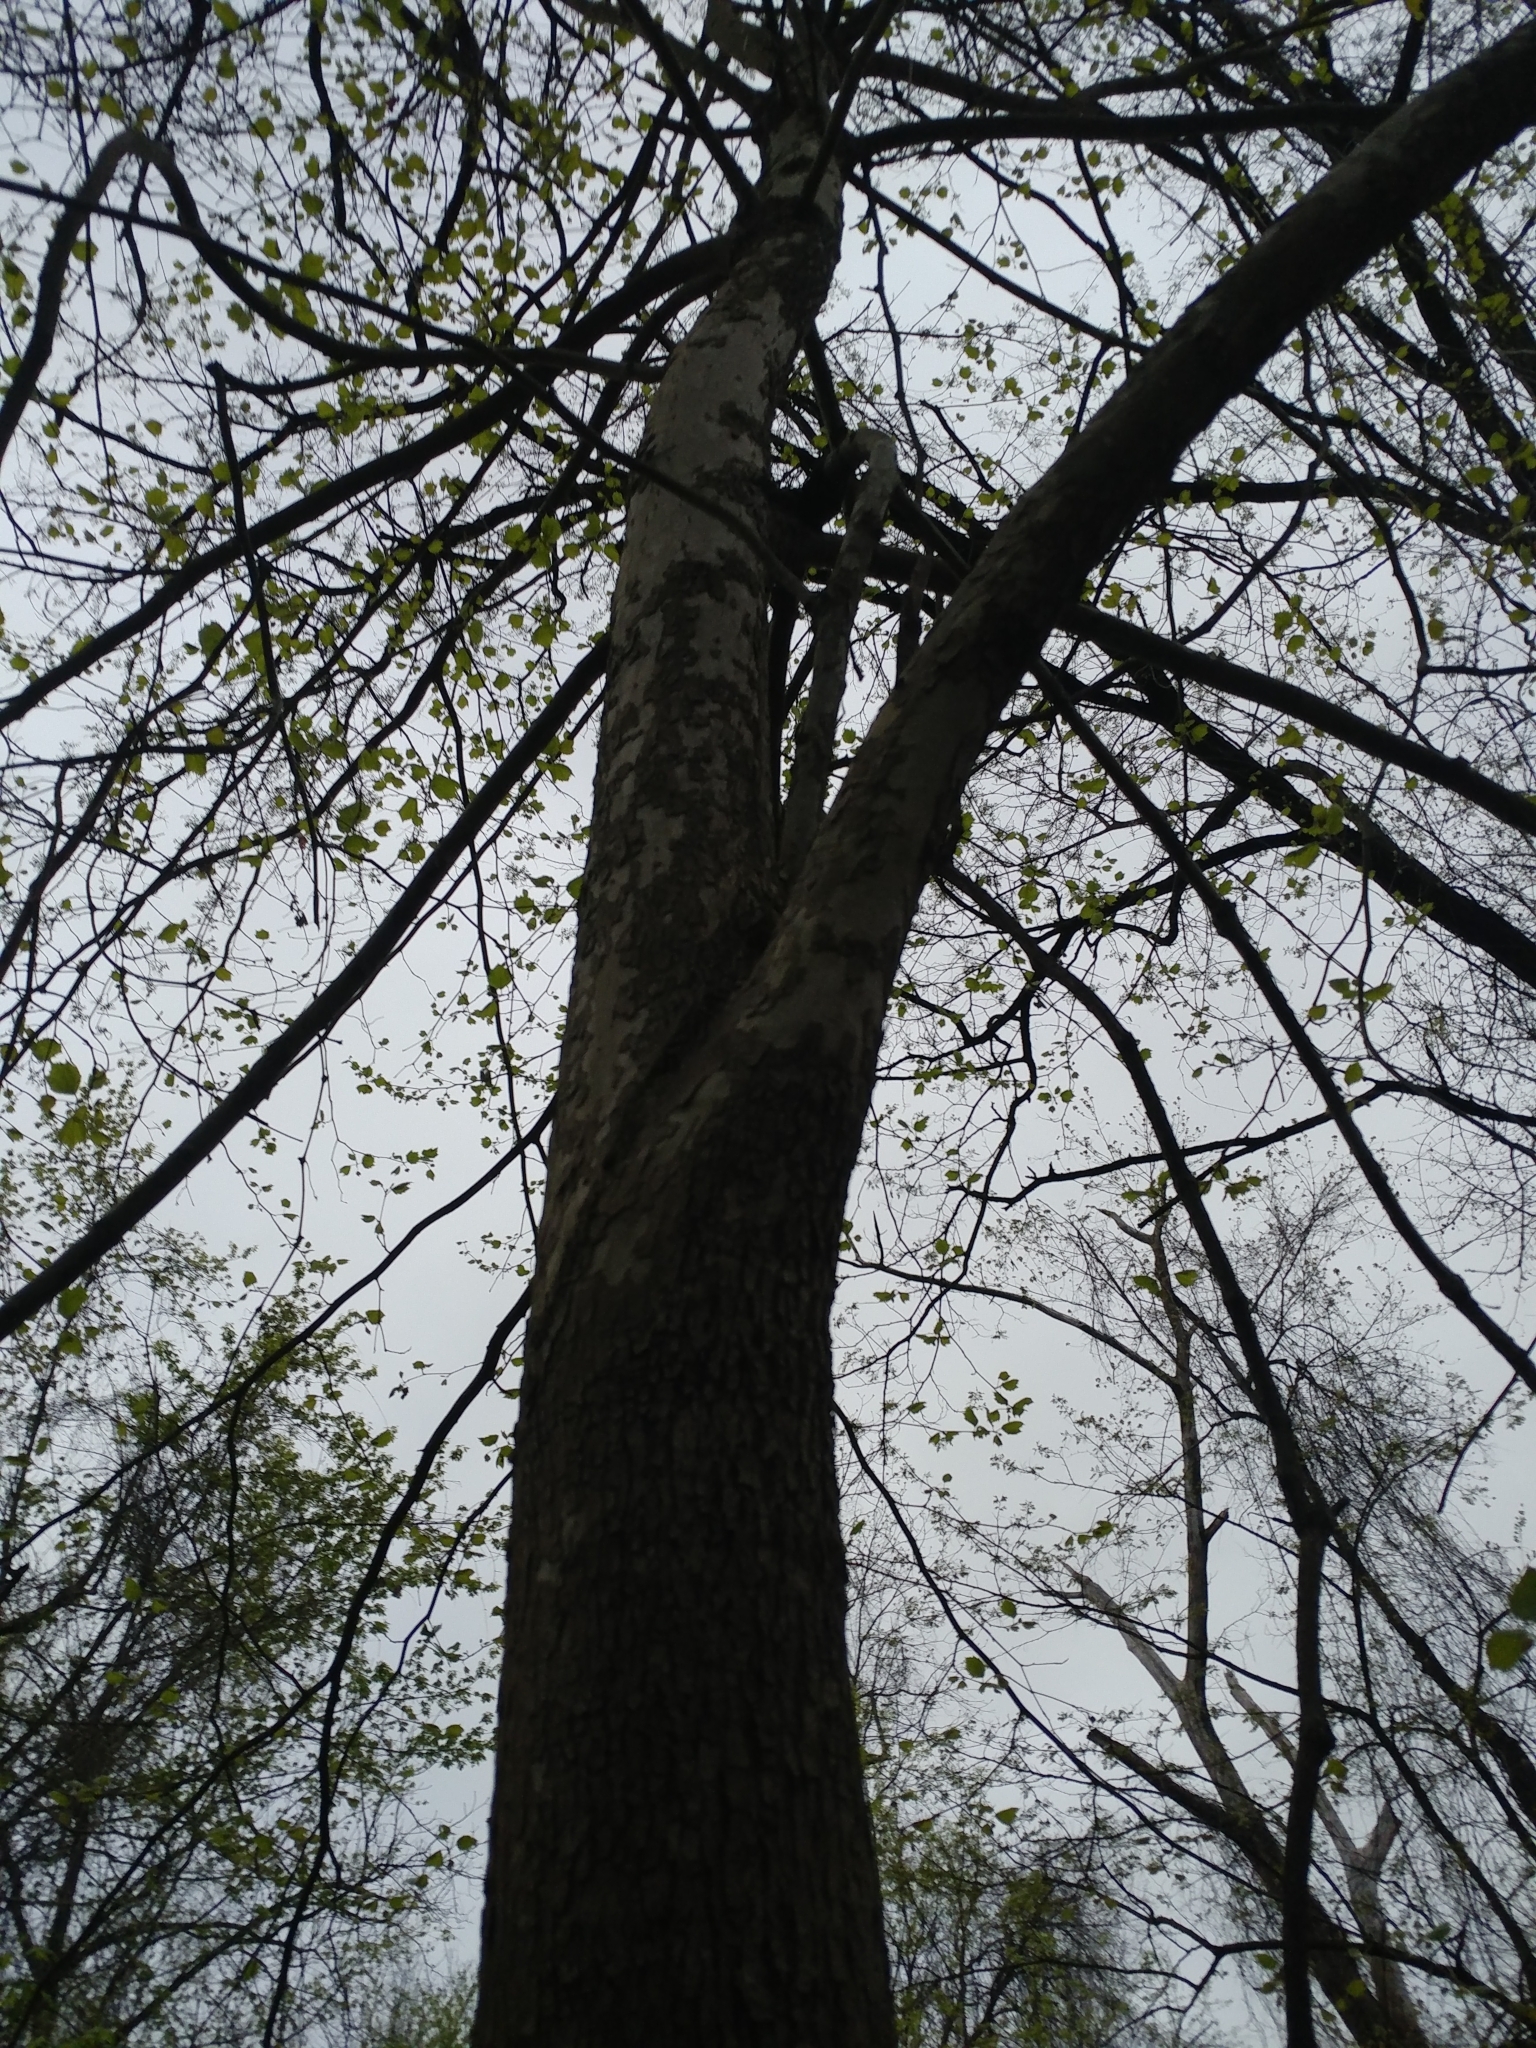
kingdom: Plantae
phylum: Tracheophyta
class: Magnoliopsida
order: Proteales
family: Platanaceae
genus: Platanus
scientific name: Platanus occidentalis
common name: American sycamore
